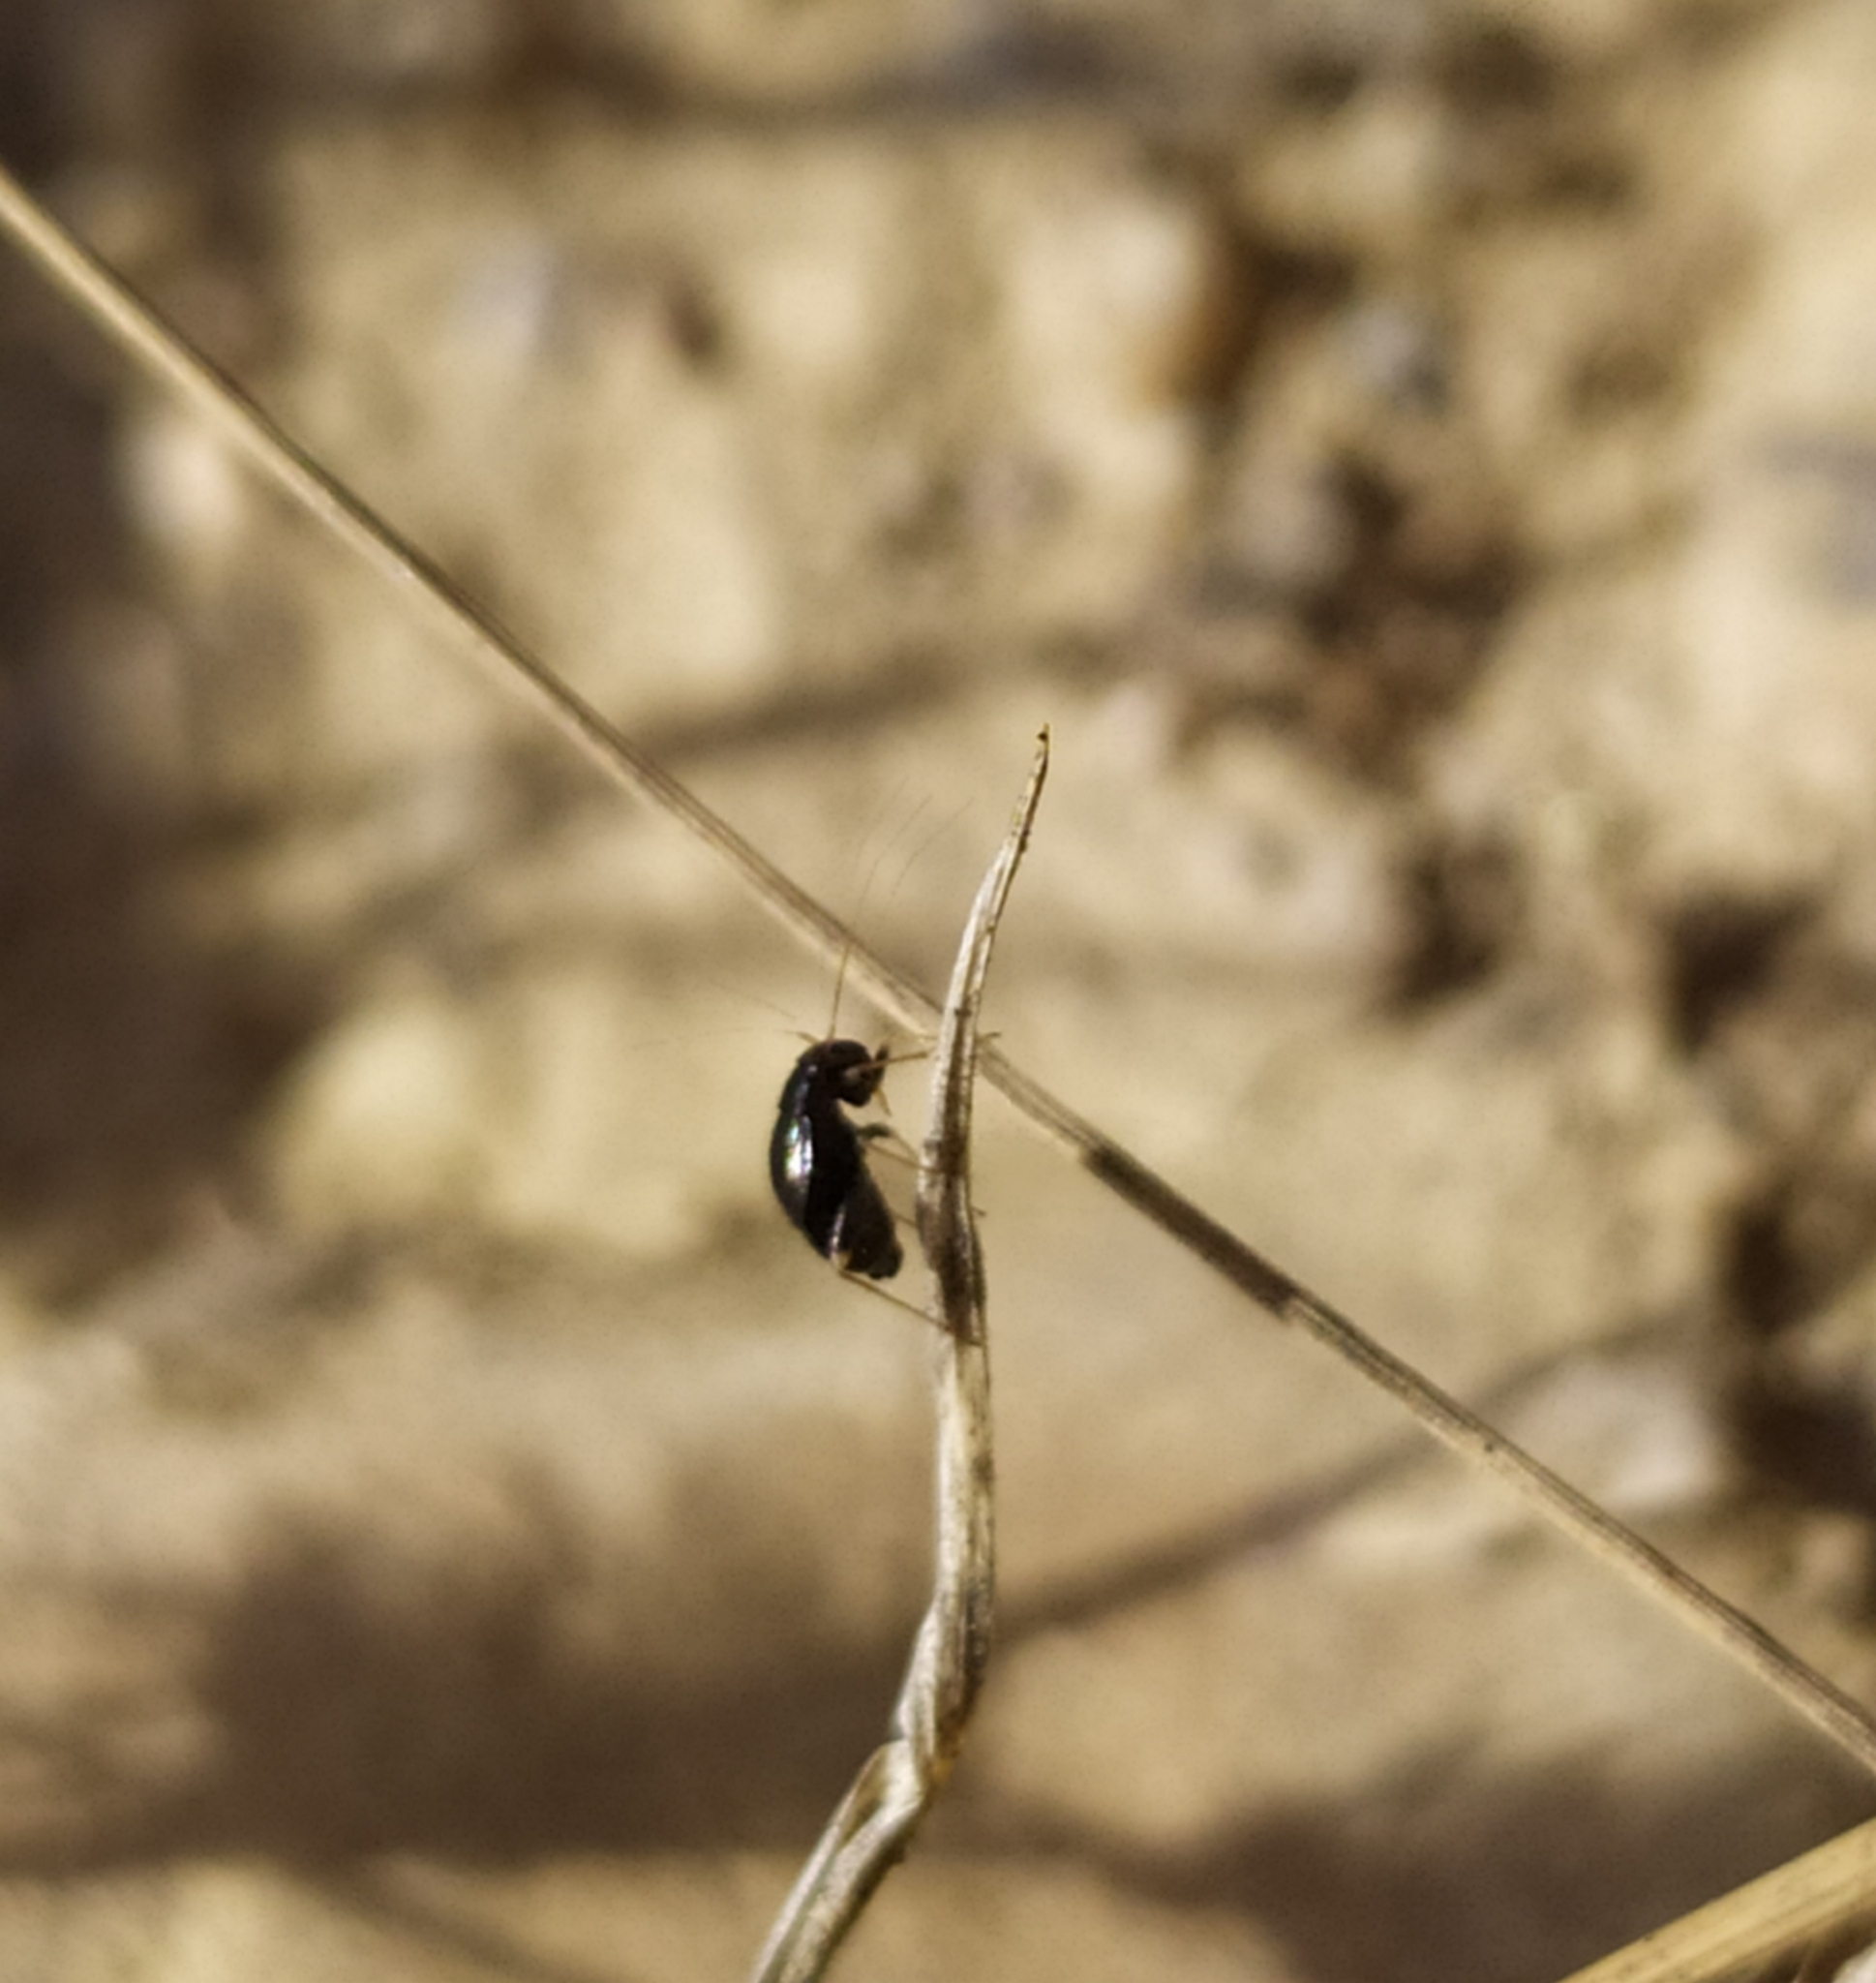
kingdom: Animalia
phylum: Arthropoda
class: Insecta
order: Hemiptera
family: Miridae
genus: Halticus
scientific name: Halticus apterus
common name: Fleahopper
